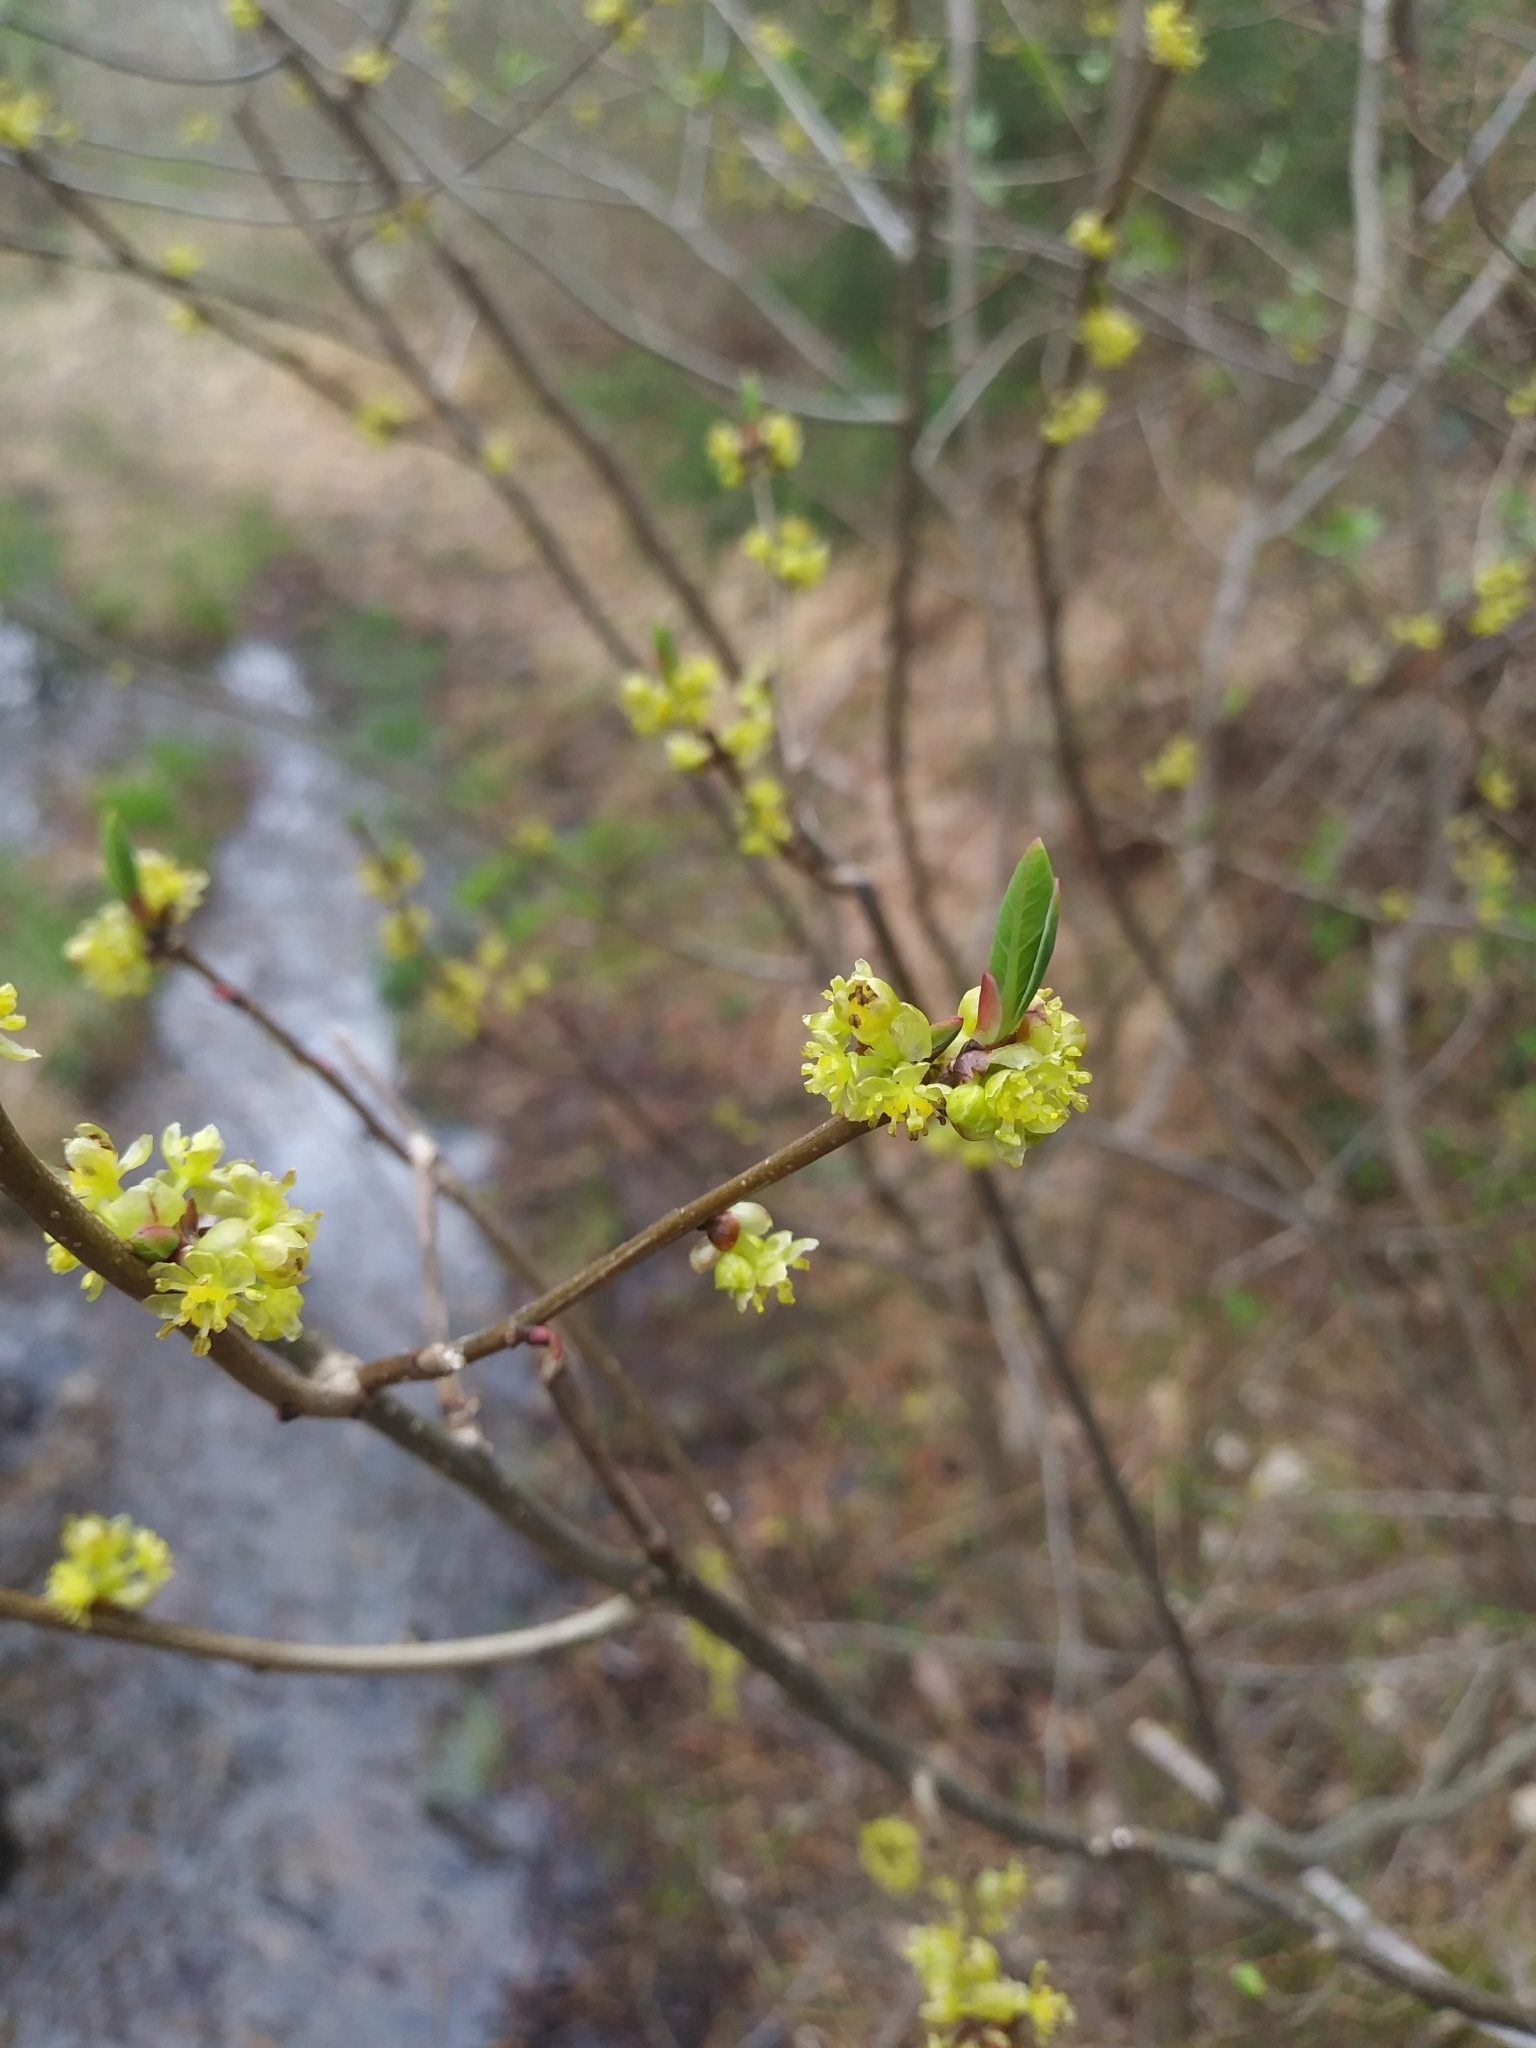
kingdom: Plantae
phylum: Tracheophyta
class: Magnoliopsida
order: Laurales
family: Lauraceae
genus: Lindera
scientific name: Lindera benzoin
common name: Spicebush
